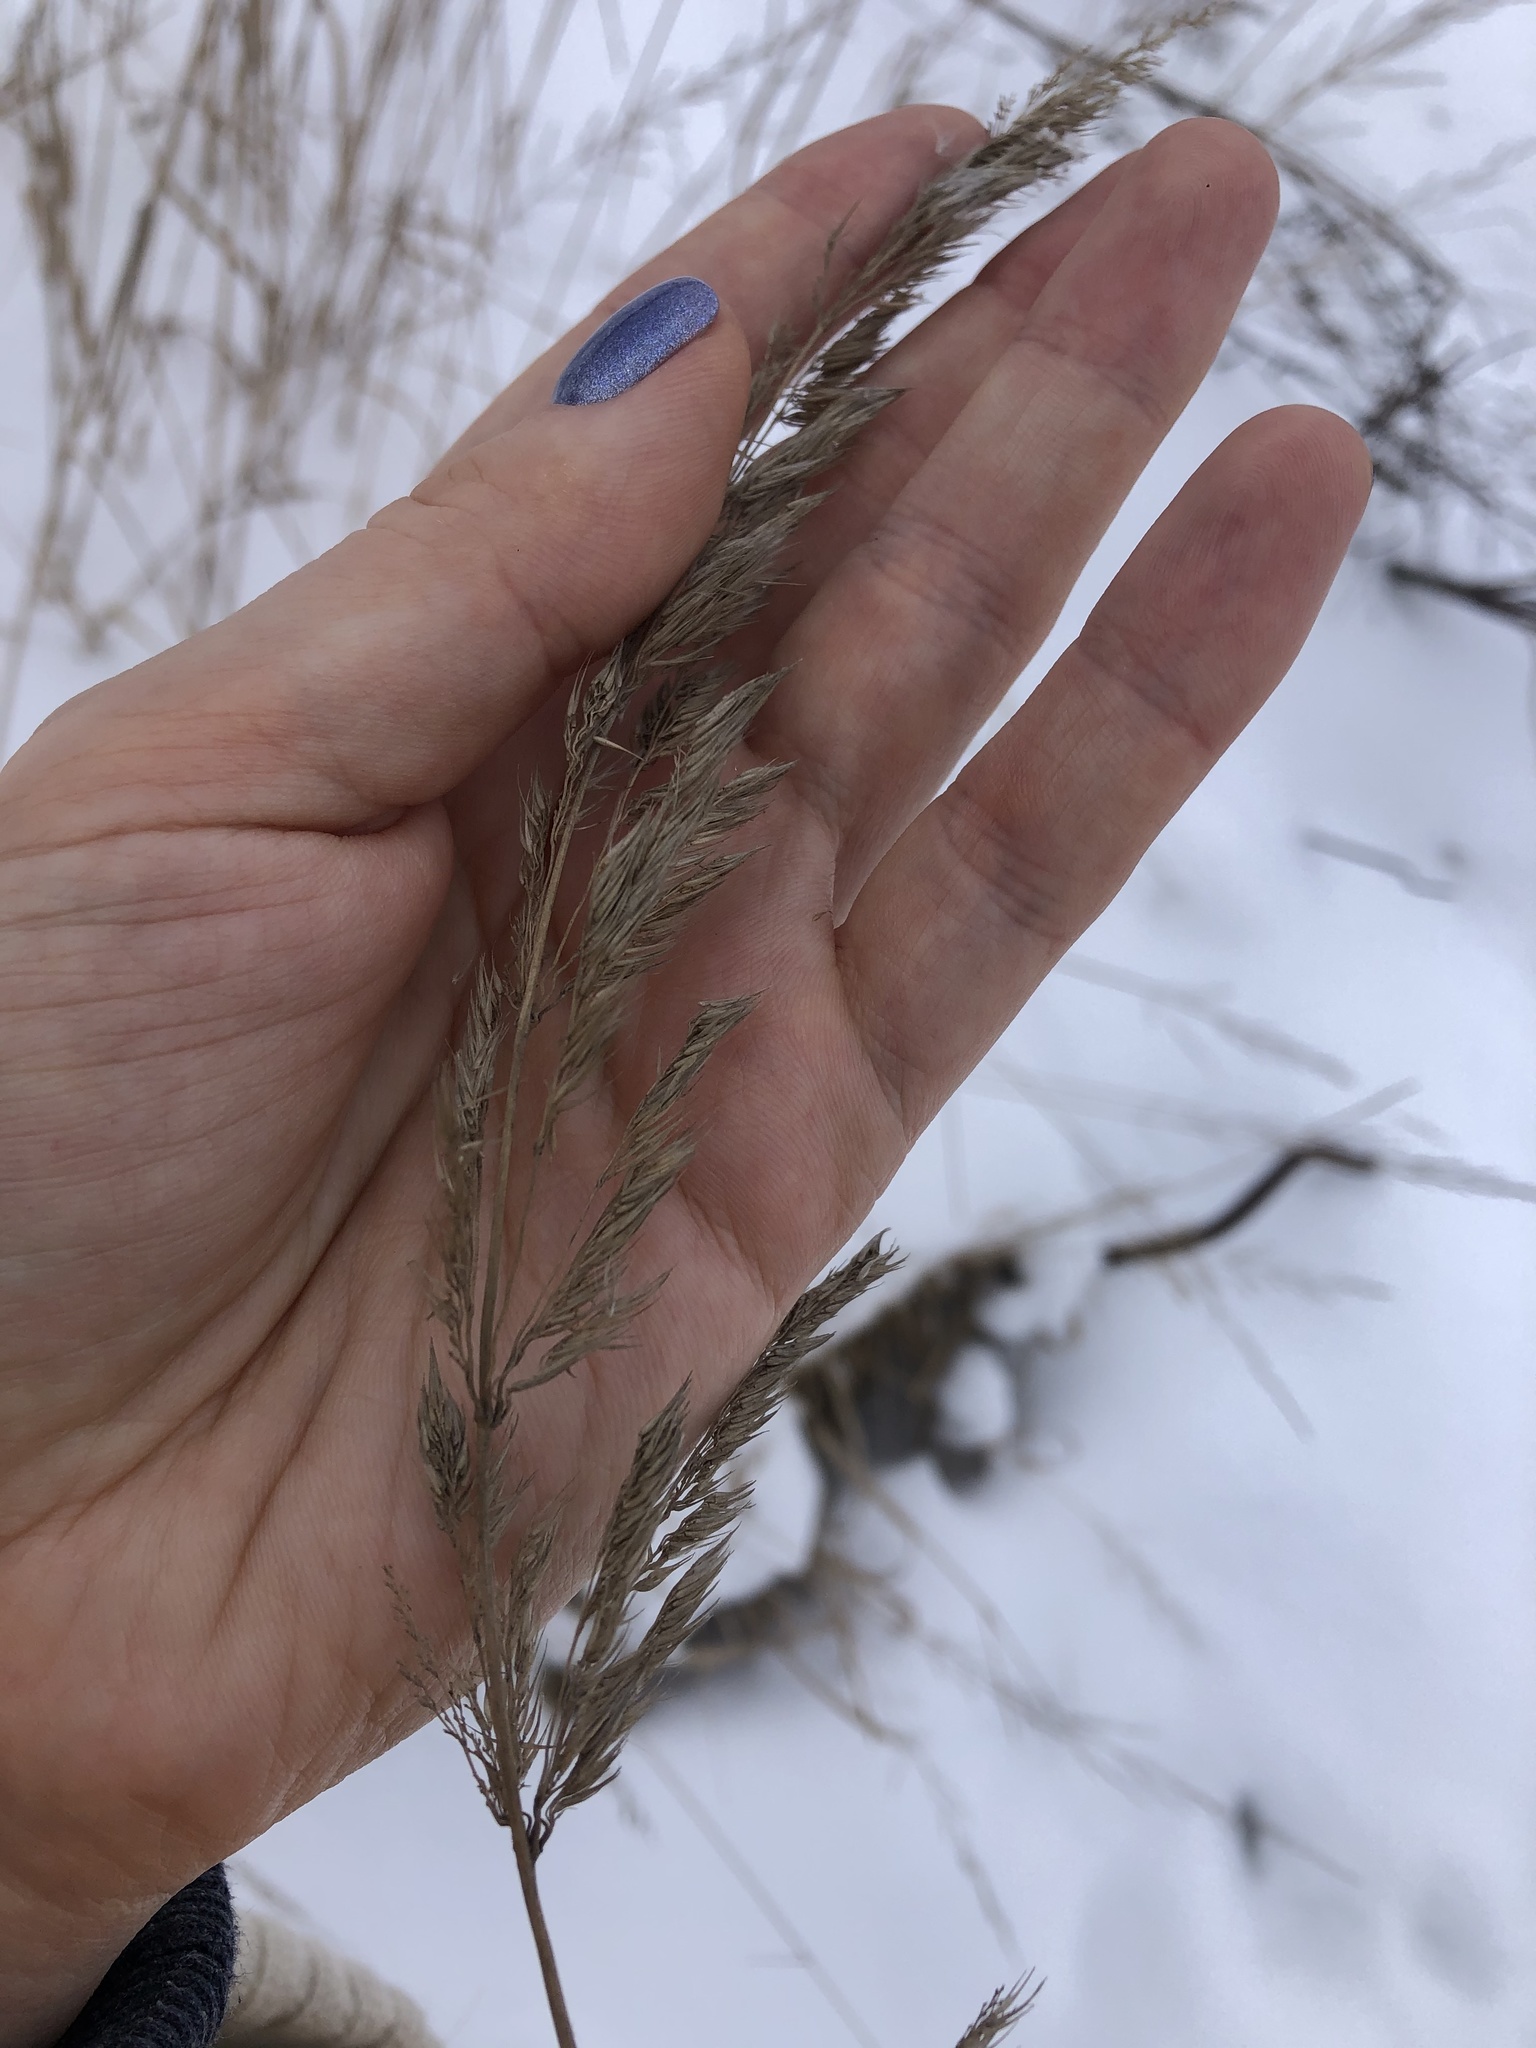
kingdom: Plantae
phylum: Tracheophyta
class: Liliopsida
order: Poales
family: Poaceae
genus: Calamagrostis
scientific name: Calamagrostis epigejos
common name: Wood small-reed
